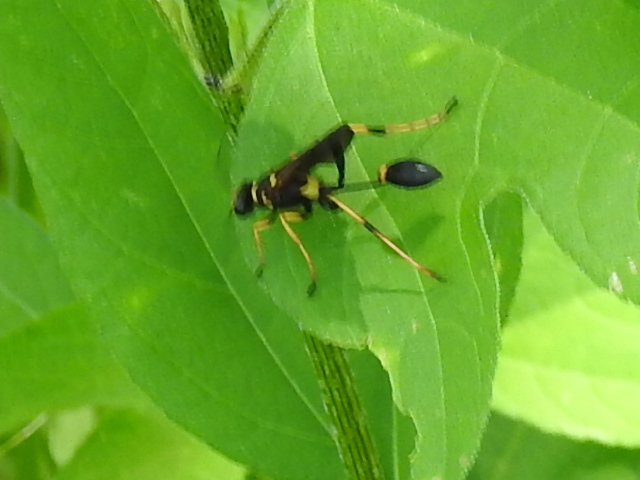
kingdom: Animalia
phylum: Arthropoda
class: Insecta
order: Hymenoptera
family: Sphecidae
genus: Sceliphron
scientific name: Sceliphron caementarium
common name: Mud dauber
